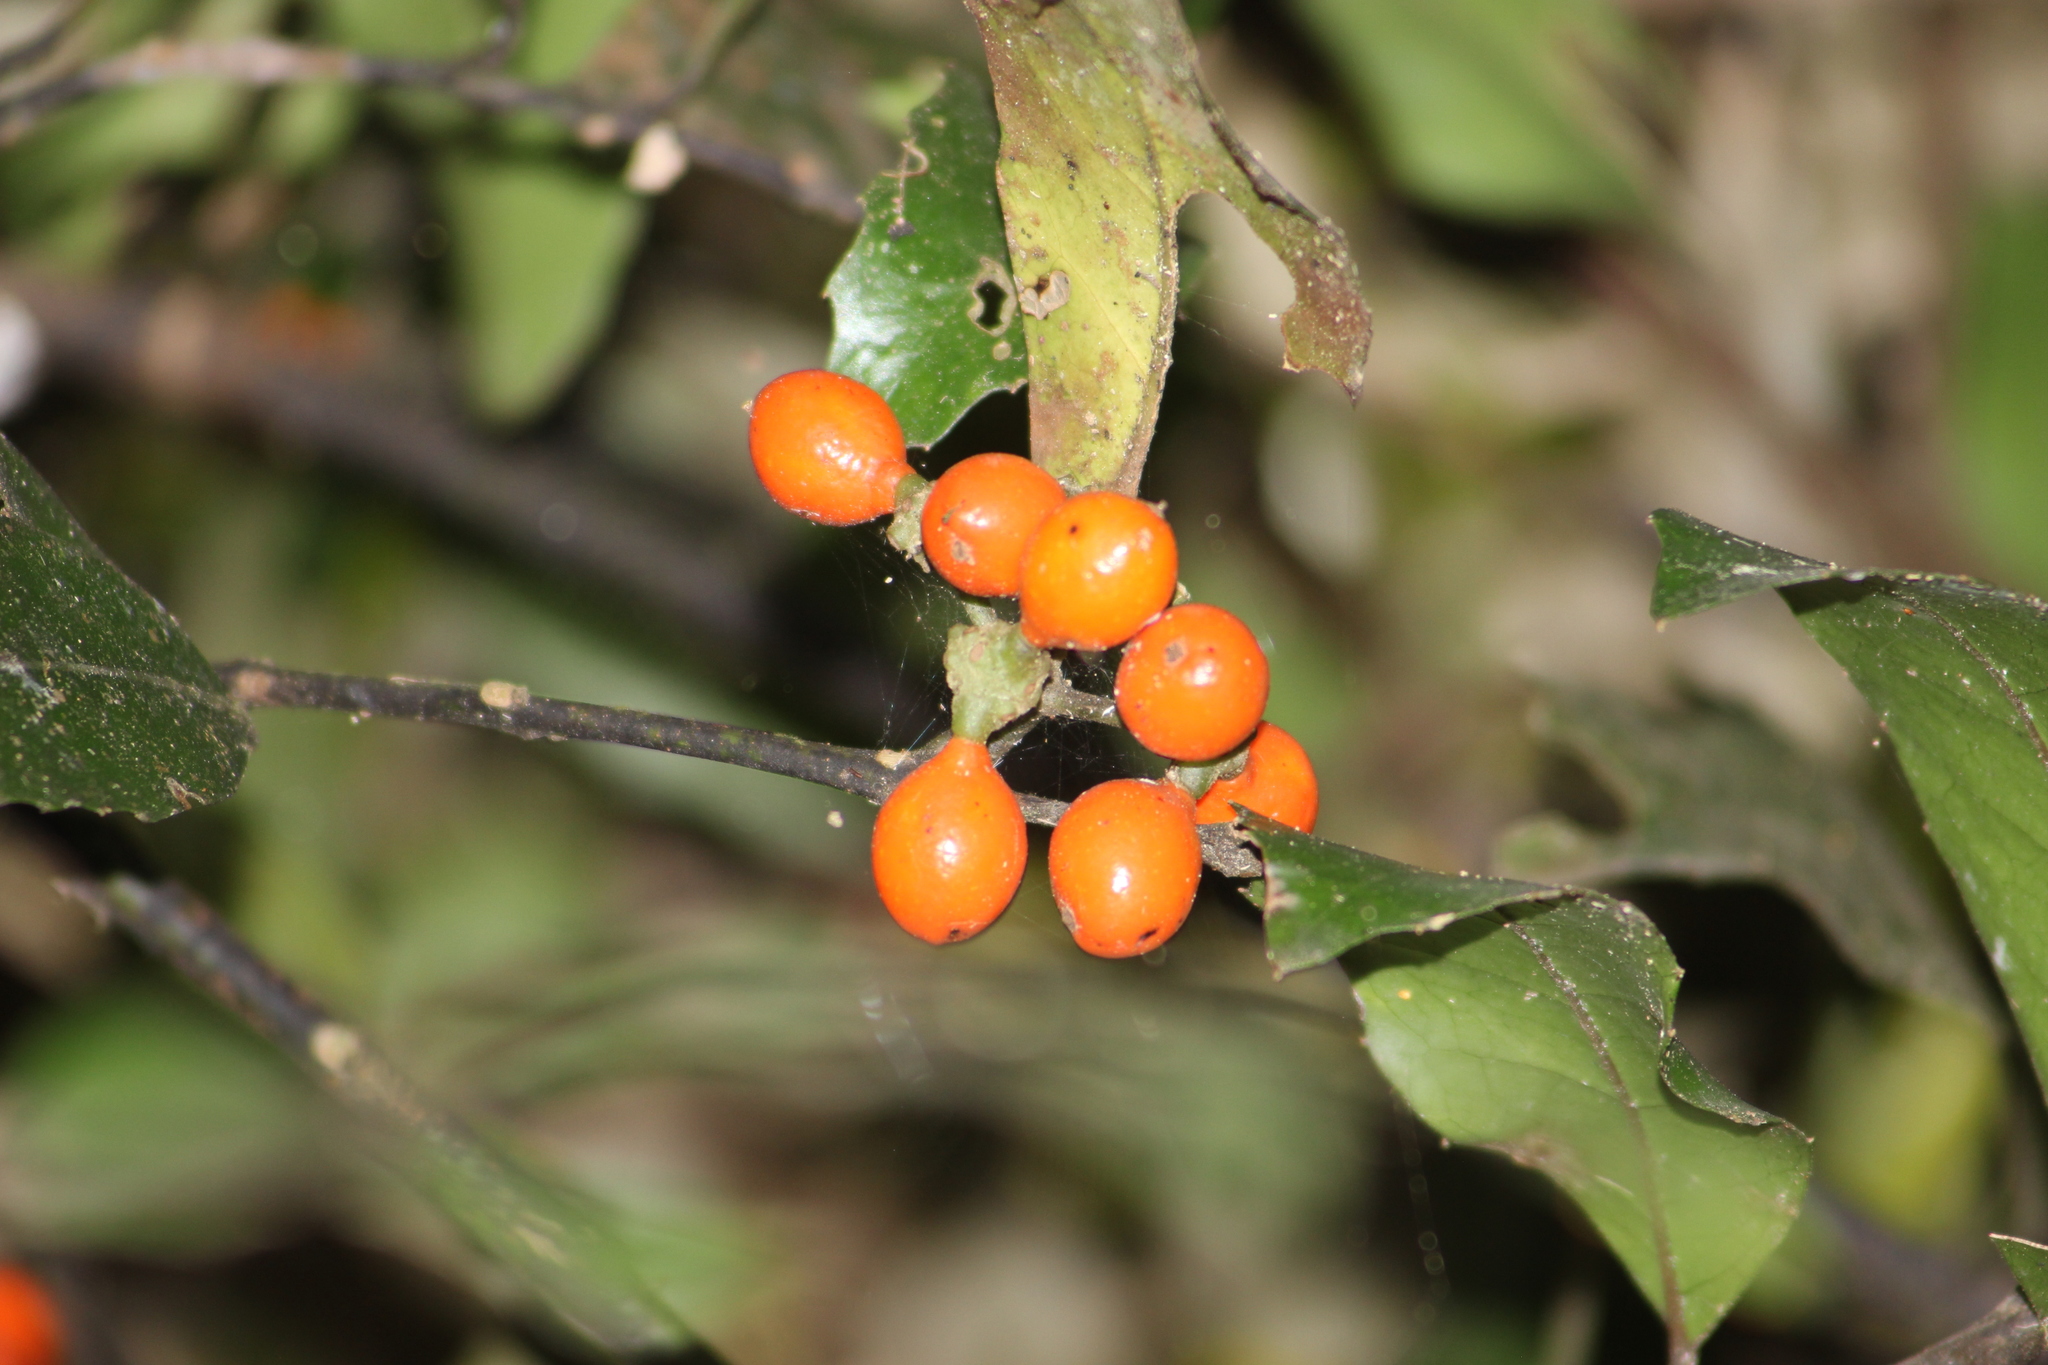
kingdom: Plantae
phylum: Tracheophyta
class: Magnoliopsida
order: Laurales
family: Monimiaceae
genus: Hedycarya
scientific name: Hedycarya arborea
